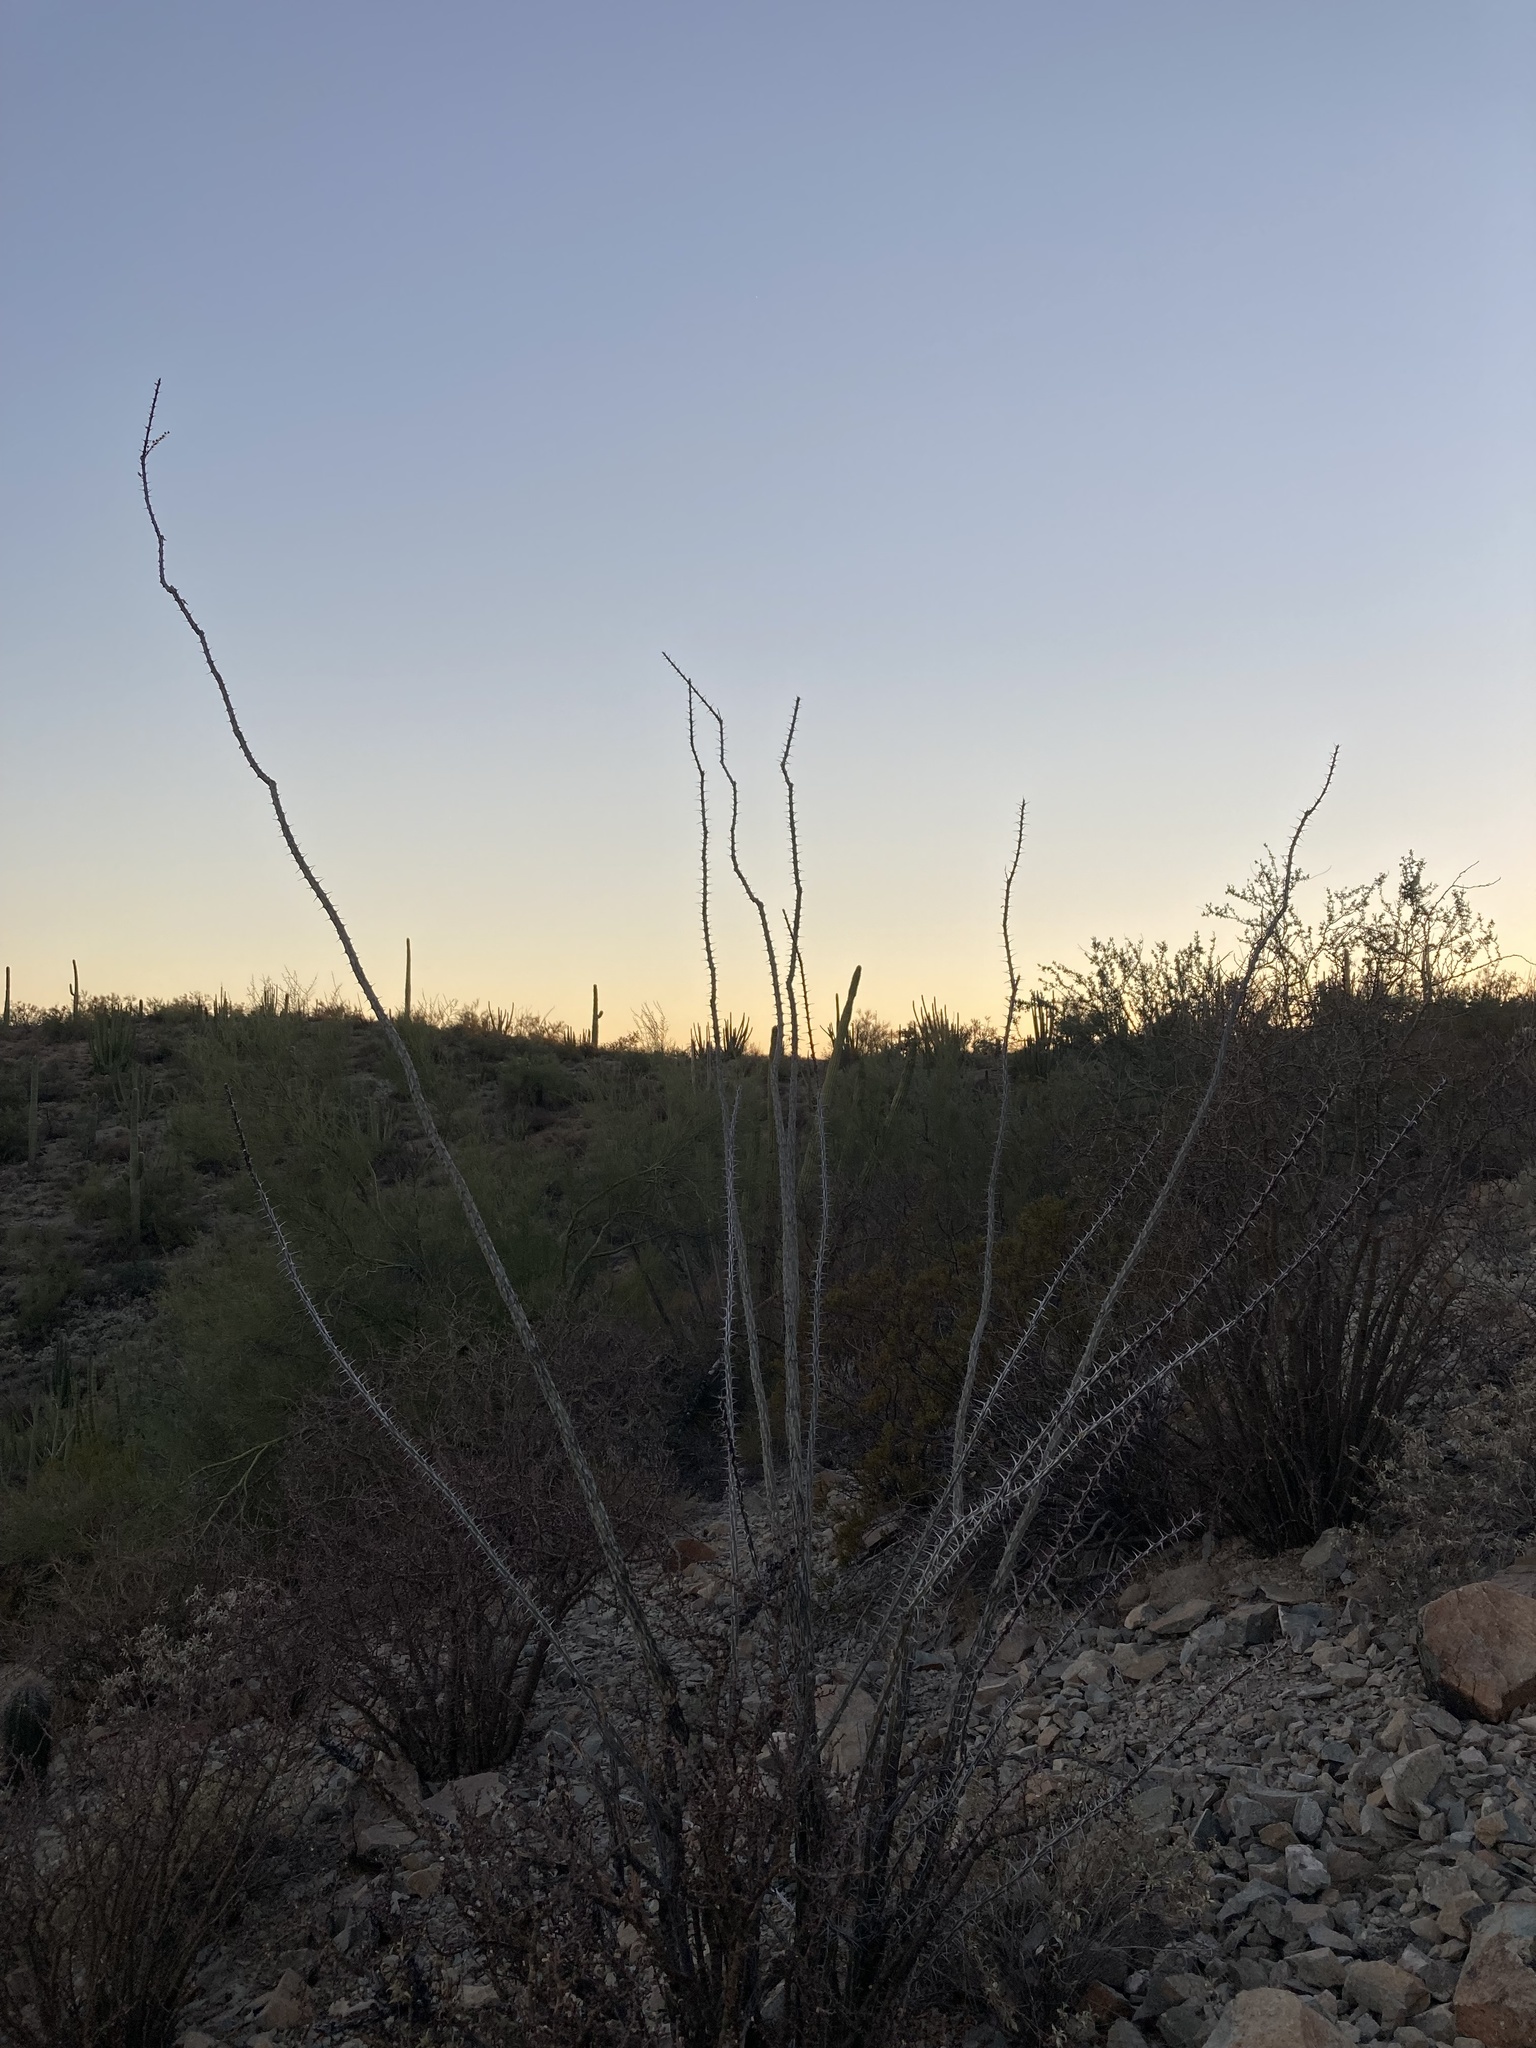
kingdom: Plantae
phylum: Tracheophyta
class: Magnoliopsida
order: Ericales
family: Fouquieriaceae
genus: Fouquieria
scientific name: Fouquieria splendens
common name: Vine-cactus
